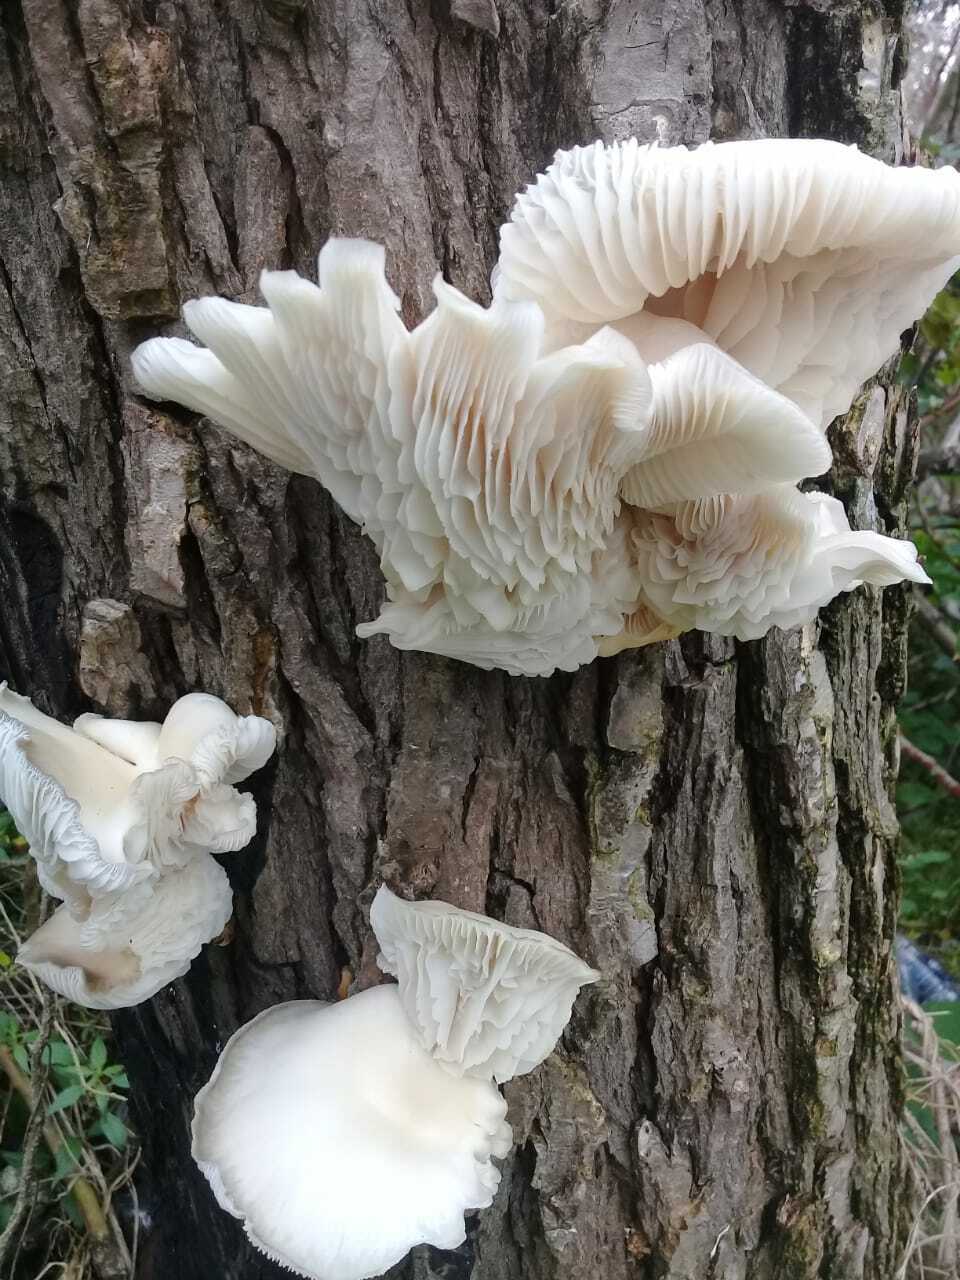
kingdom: Fungi
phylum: Basidiomycota
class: Agaricomycetes
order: Agaricales
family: Pleurotaceae
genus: Pleurotus
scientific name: Pleurotus albidus
